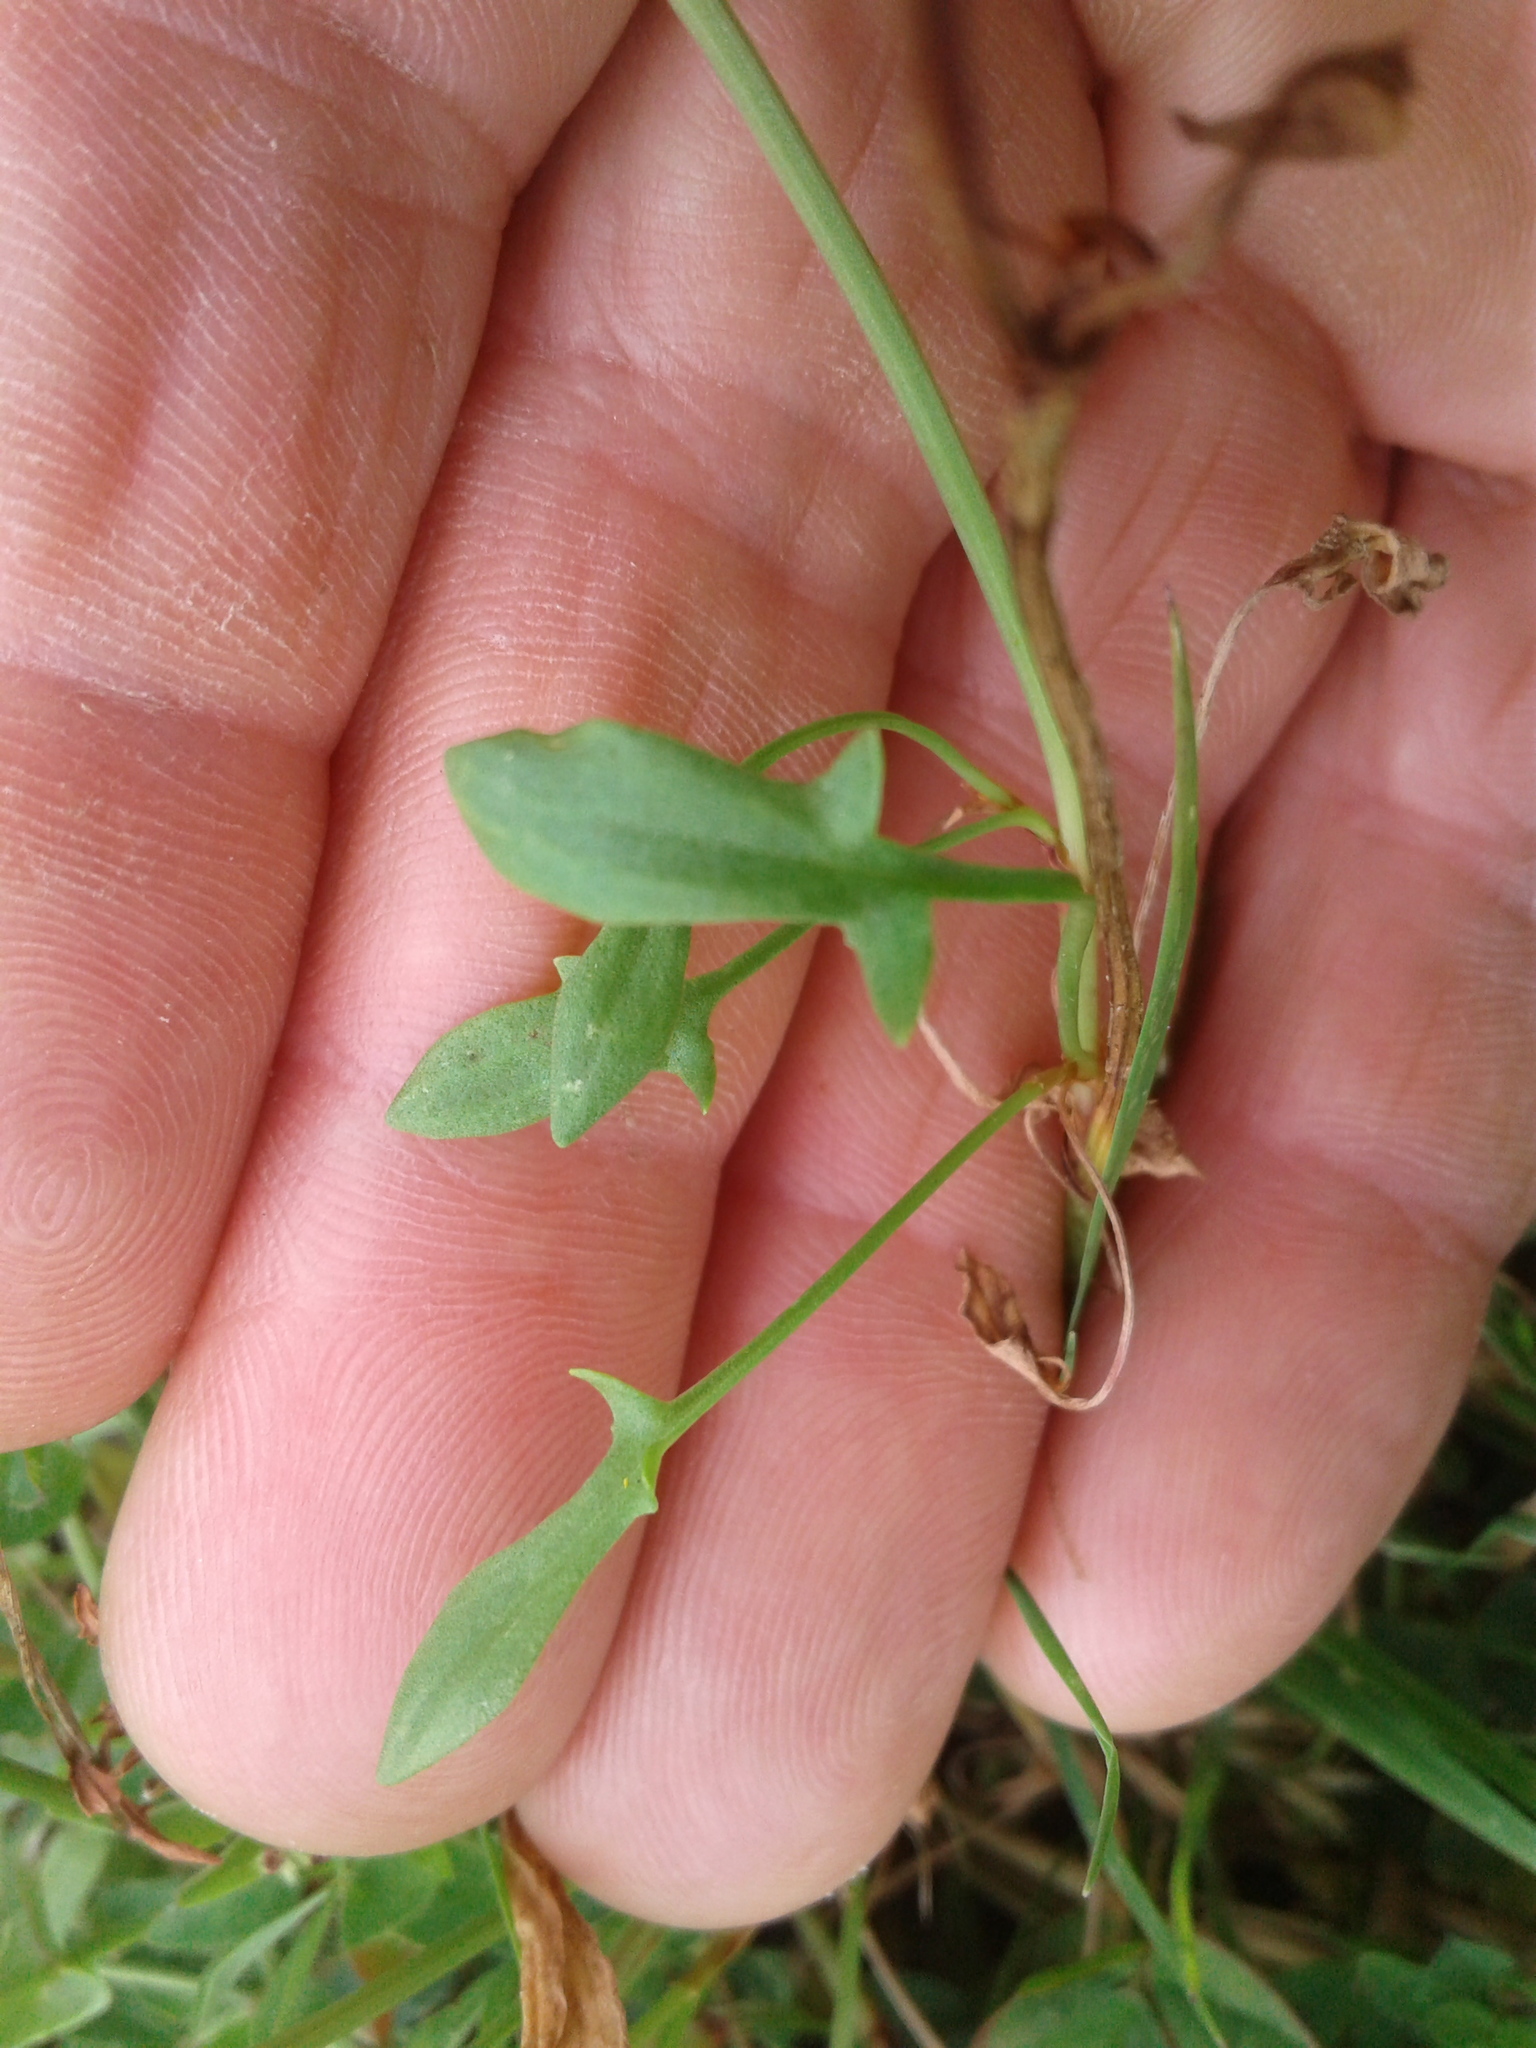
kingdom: Plantae
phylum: Tracheophyta
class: Magnoliopsida
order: Caryophyllales
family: Polygonaceae
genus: Rumex
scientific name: Rumex acetosella
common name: Common sheep sorrel
